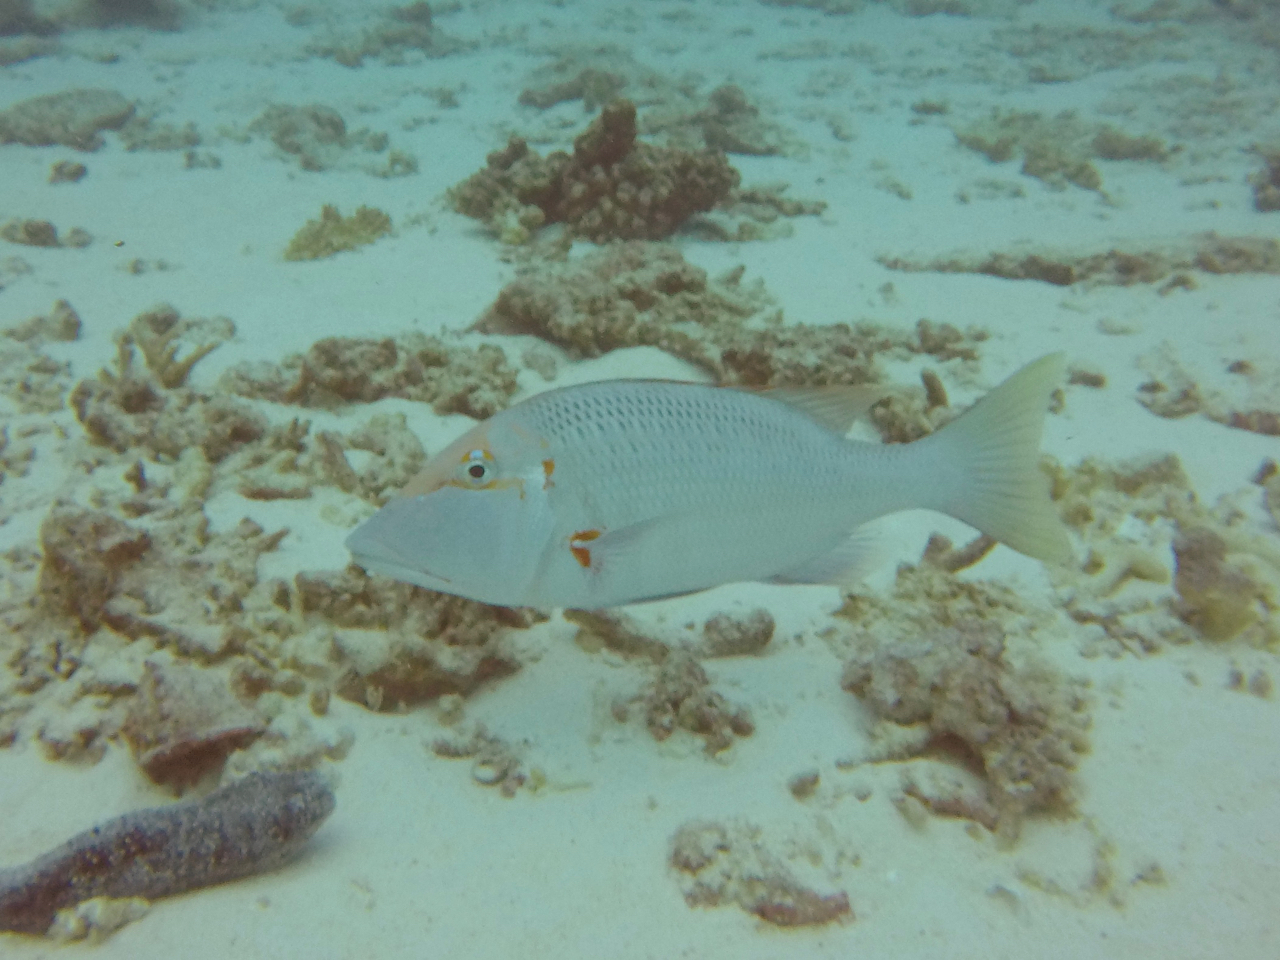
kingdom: Animalia
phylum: Chordata
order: Perciformes
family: Lethrinidae
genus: Lethrinus
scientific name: Lethrinus miniatus
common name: Trumpet emperor
